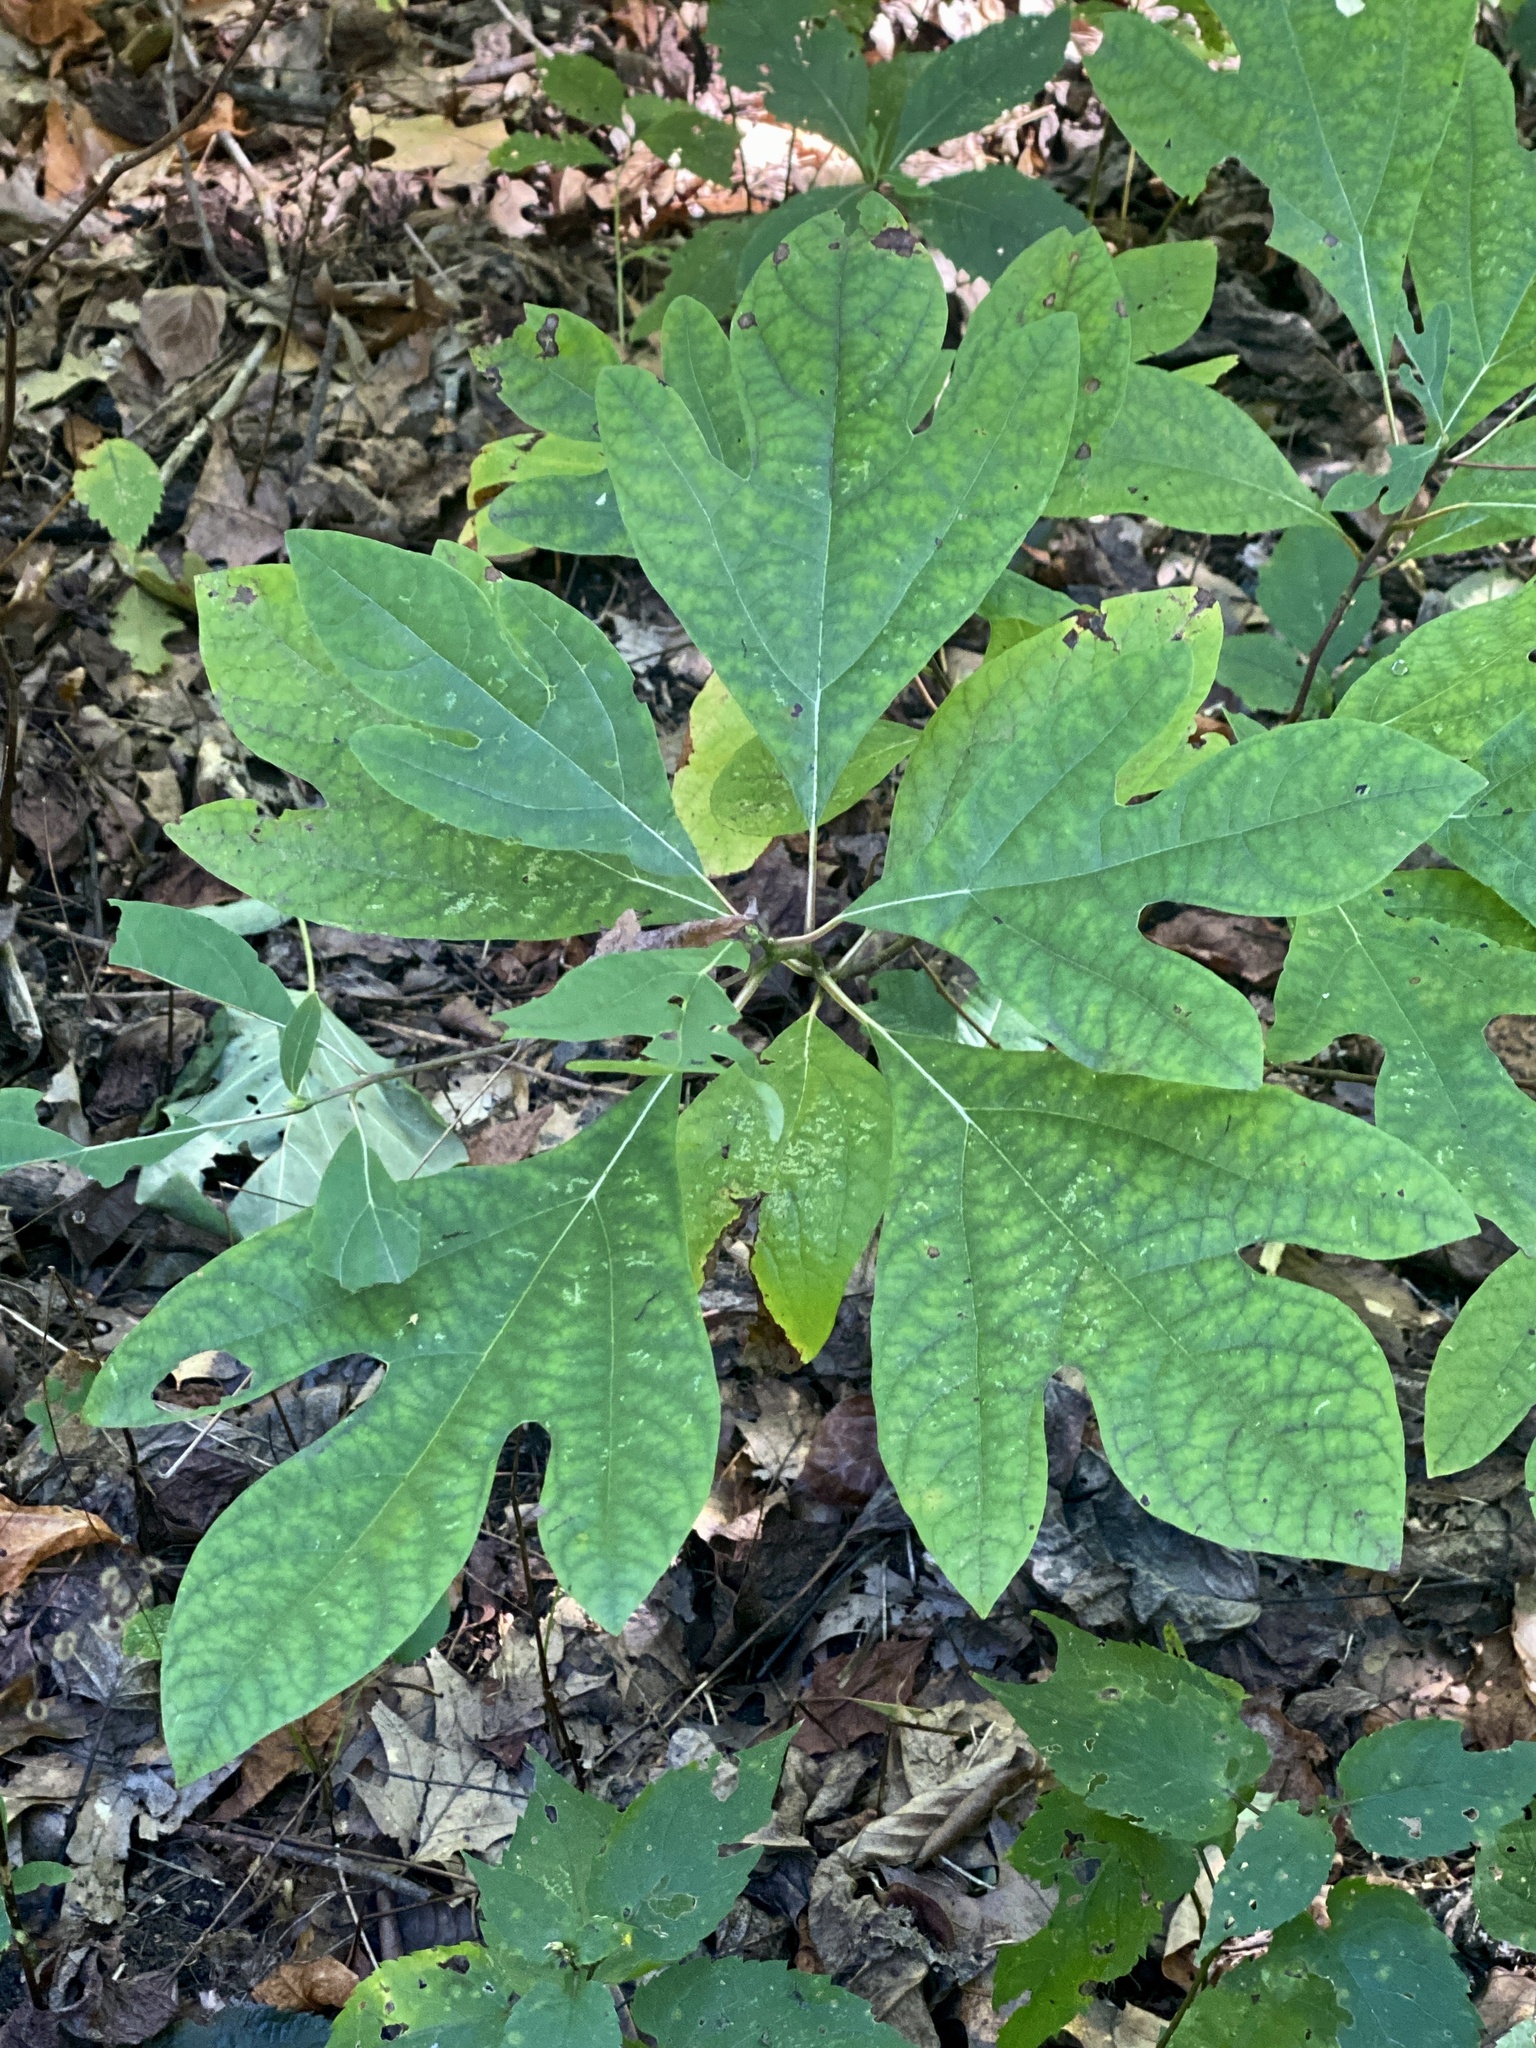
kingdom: Plantae
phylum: Tracheophyta
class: Magnoliopsida
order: Laurales
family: Lauraceae
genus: Sassafras
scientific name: Sassafras albidum
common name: Sassafras
